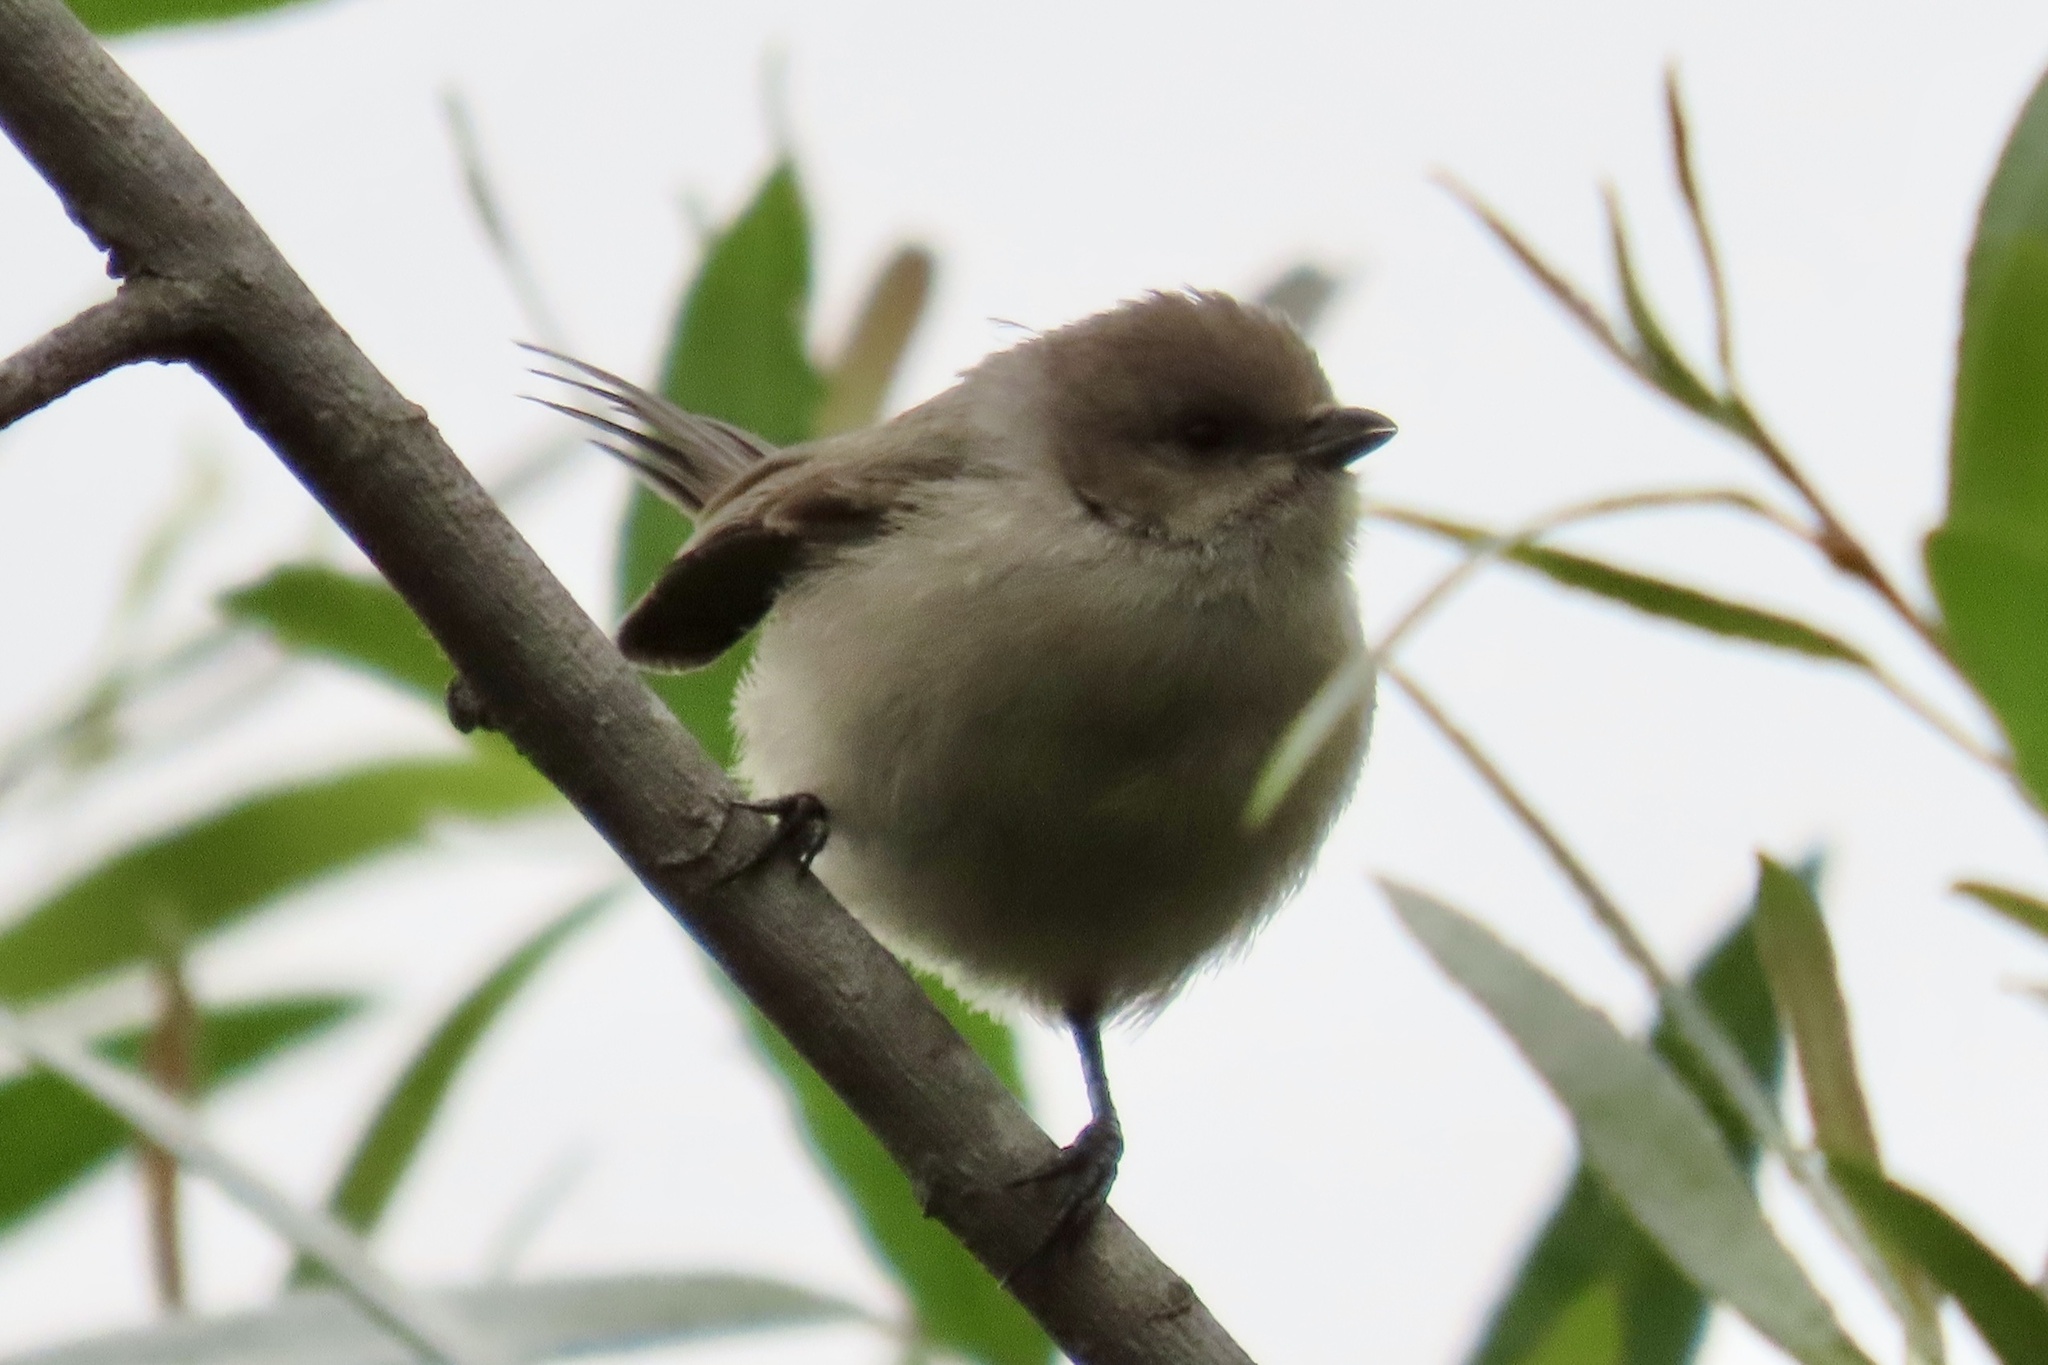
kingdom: Animalia
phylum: Chordata
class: Aves
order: Passeriformes
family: Aegithalidae
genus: Psaltriparus
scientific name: Psaltriparus minimus
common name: American bushtit
